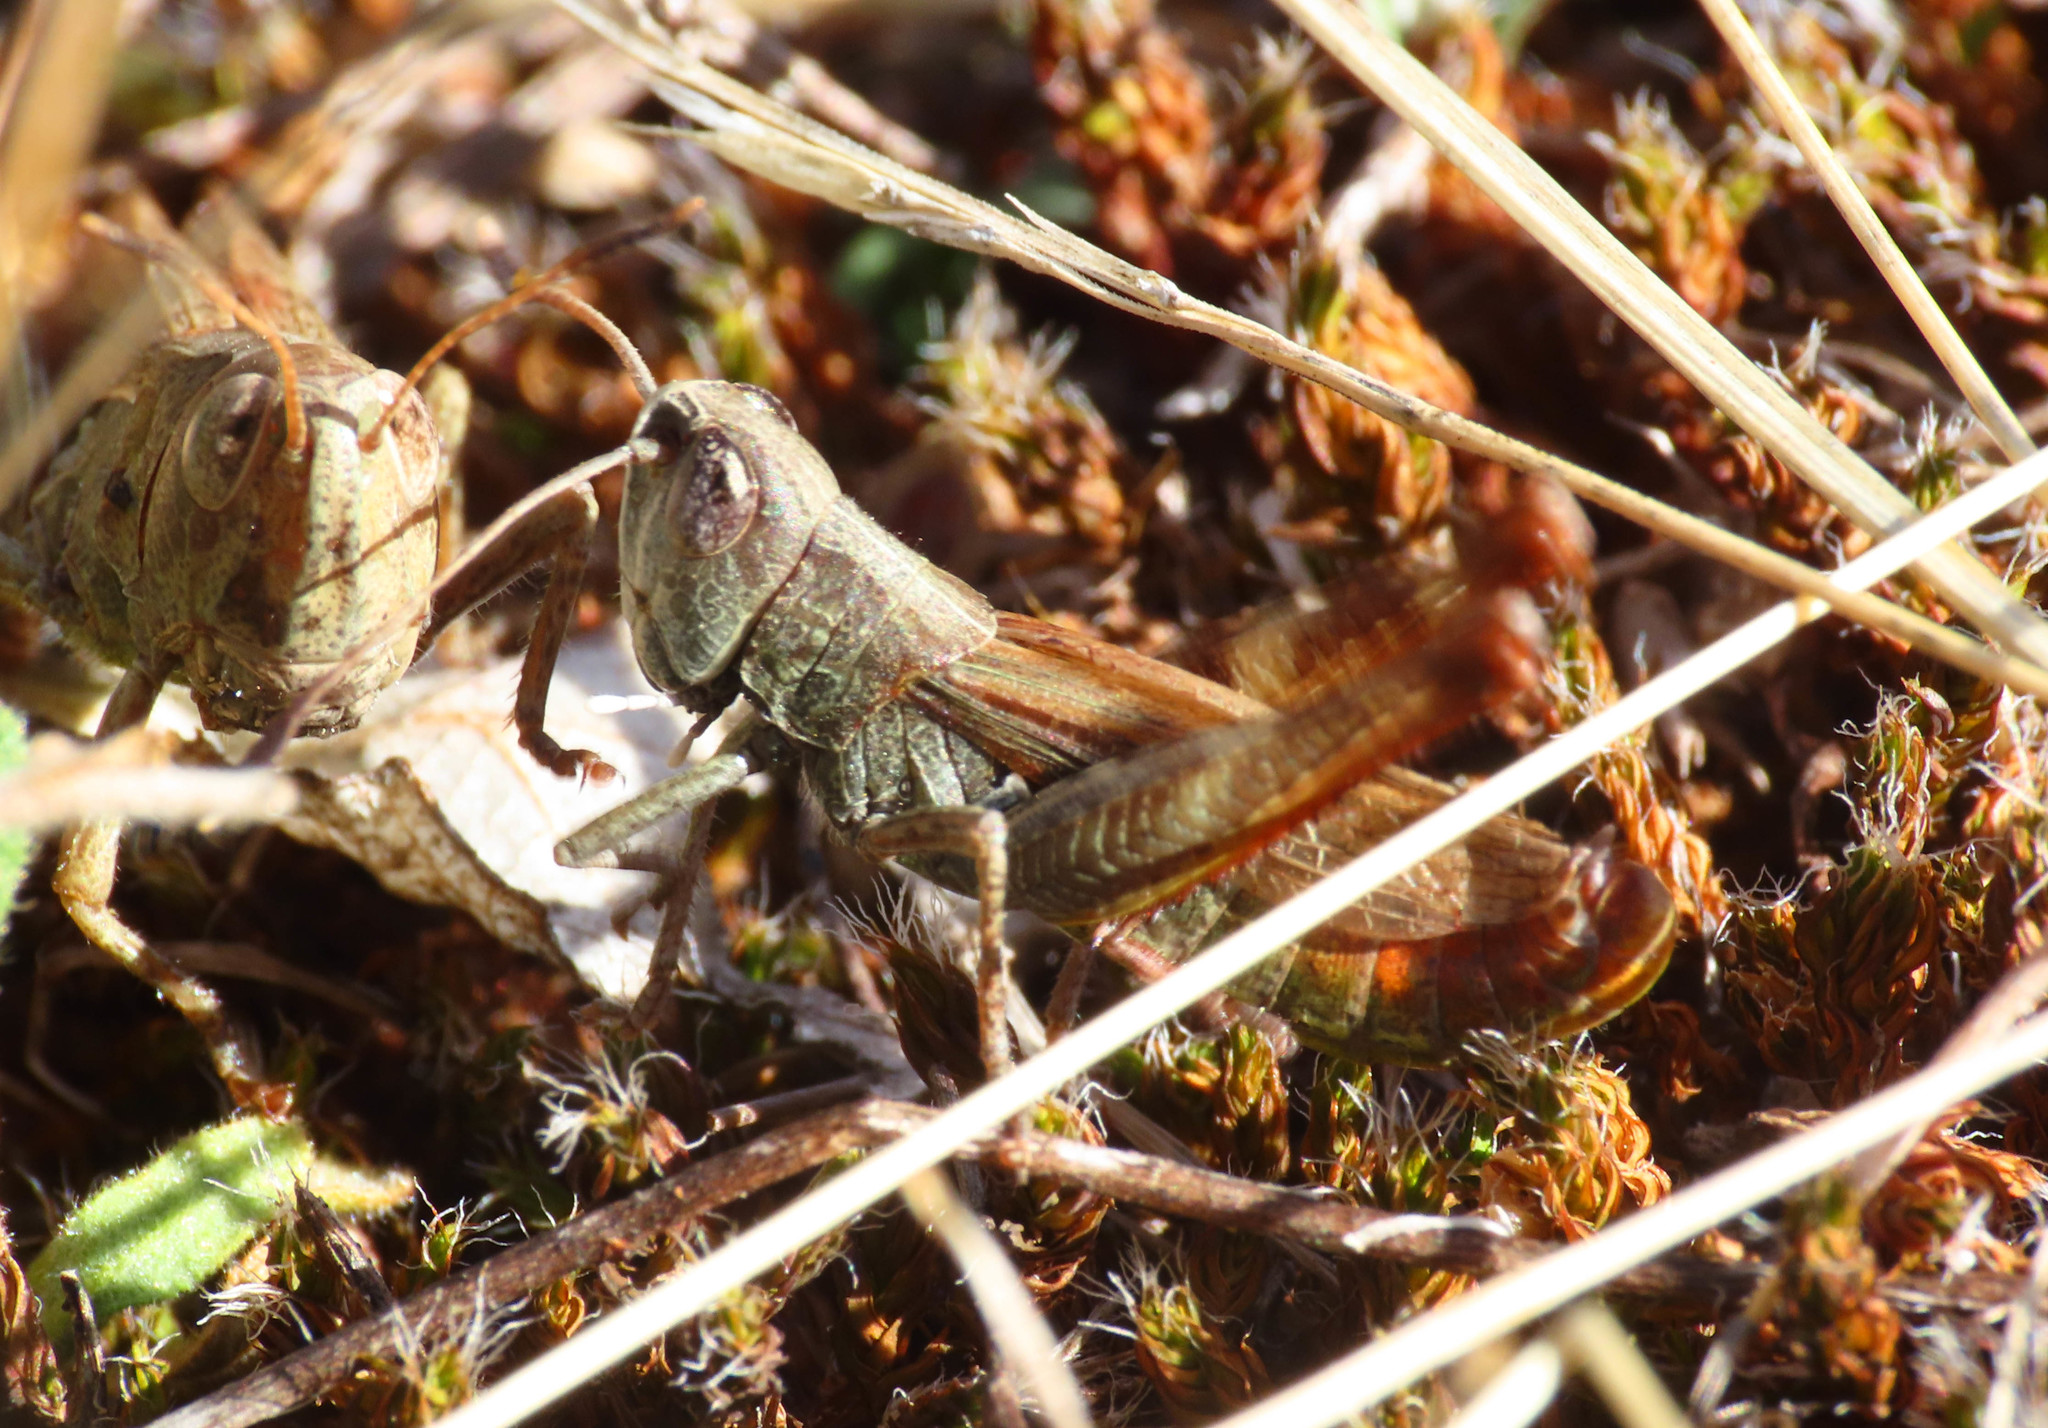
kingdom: Animalia
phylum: Arthropoda
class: Insecta
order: Orthoptera
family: Acrididae
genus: Gomphocerippus
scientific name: Gomphocerippus rufus
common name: Rufous grasshopper
